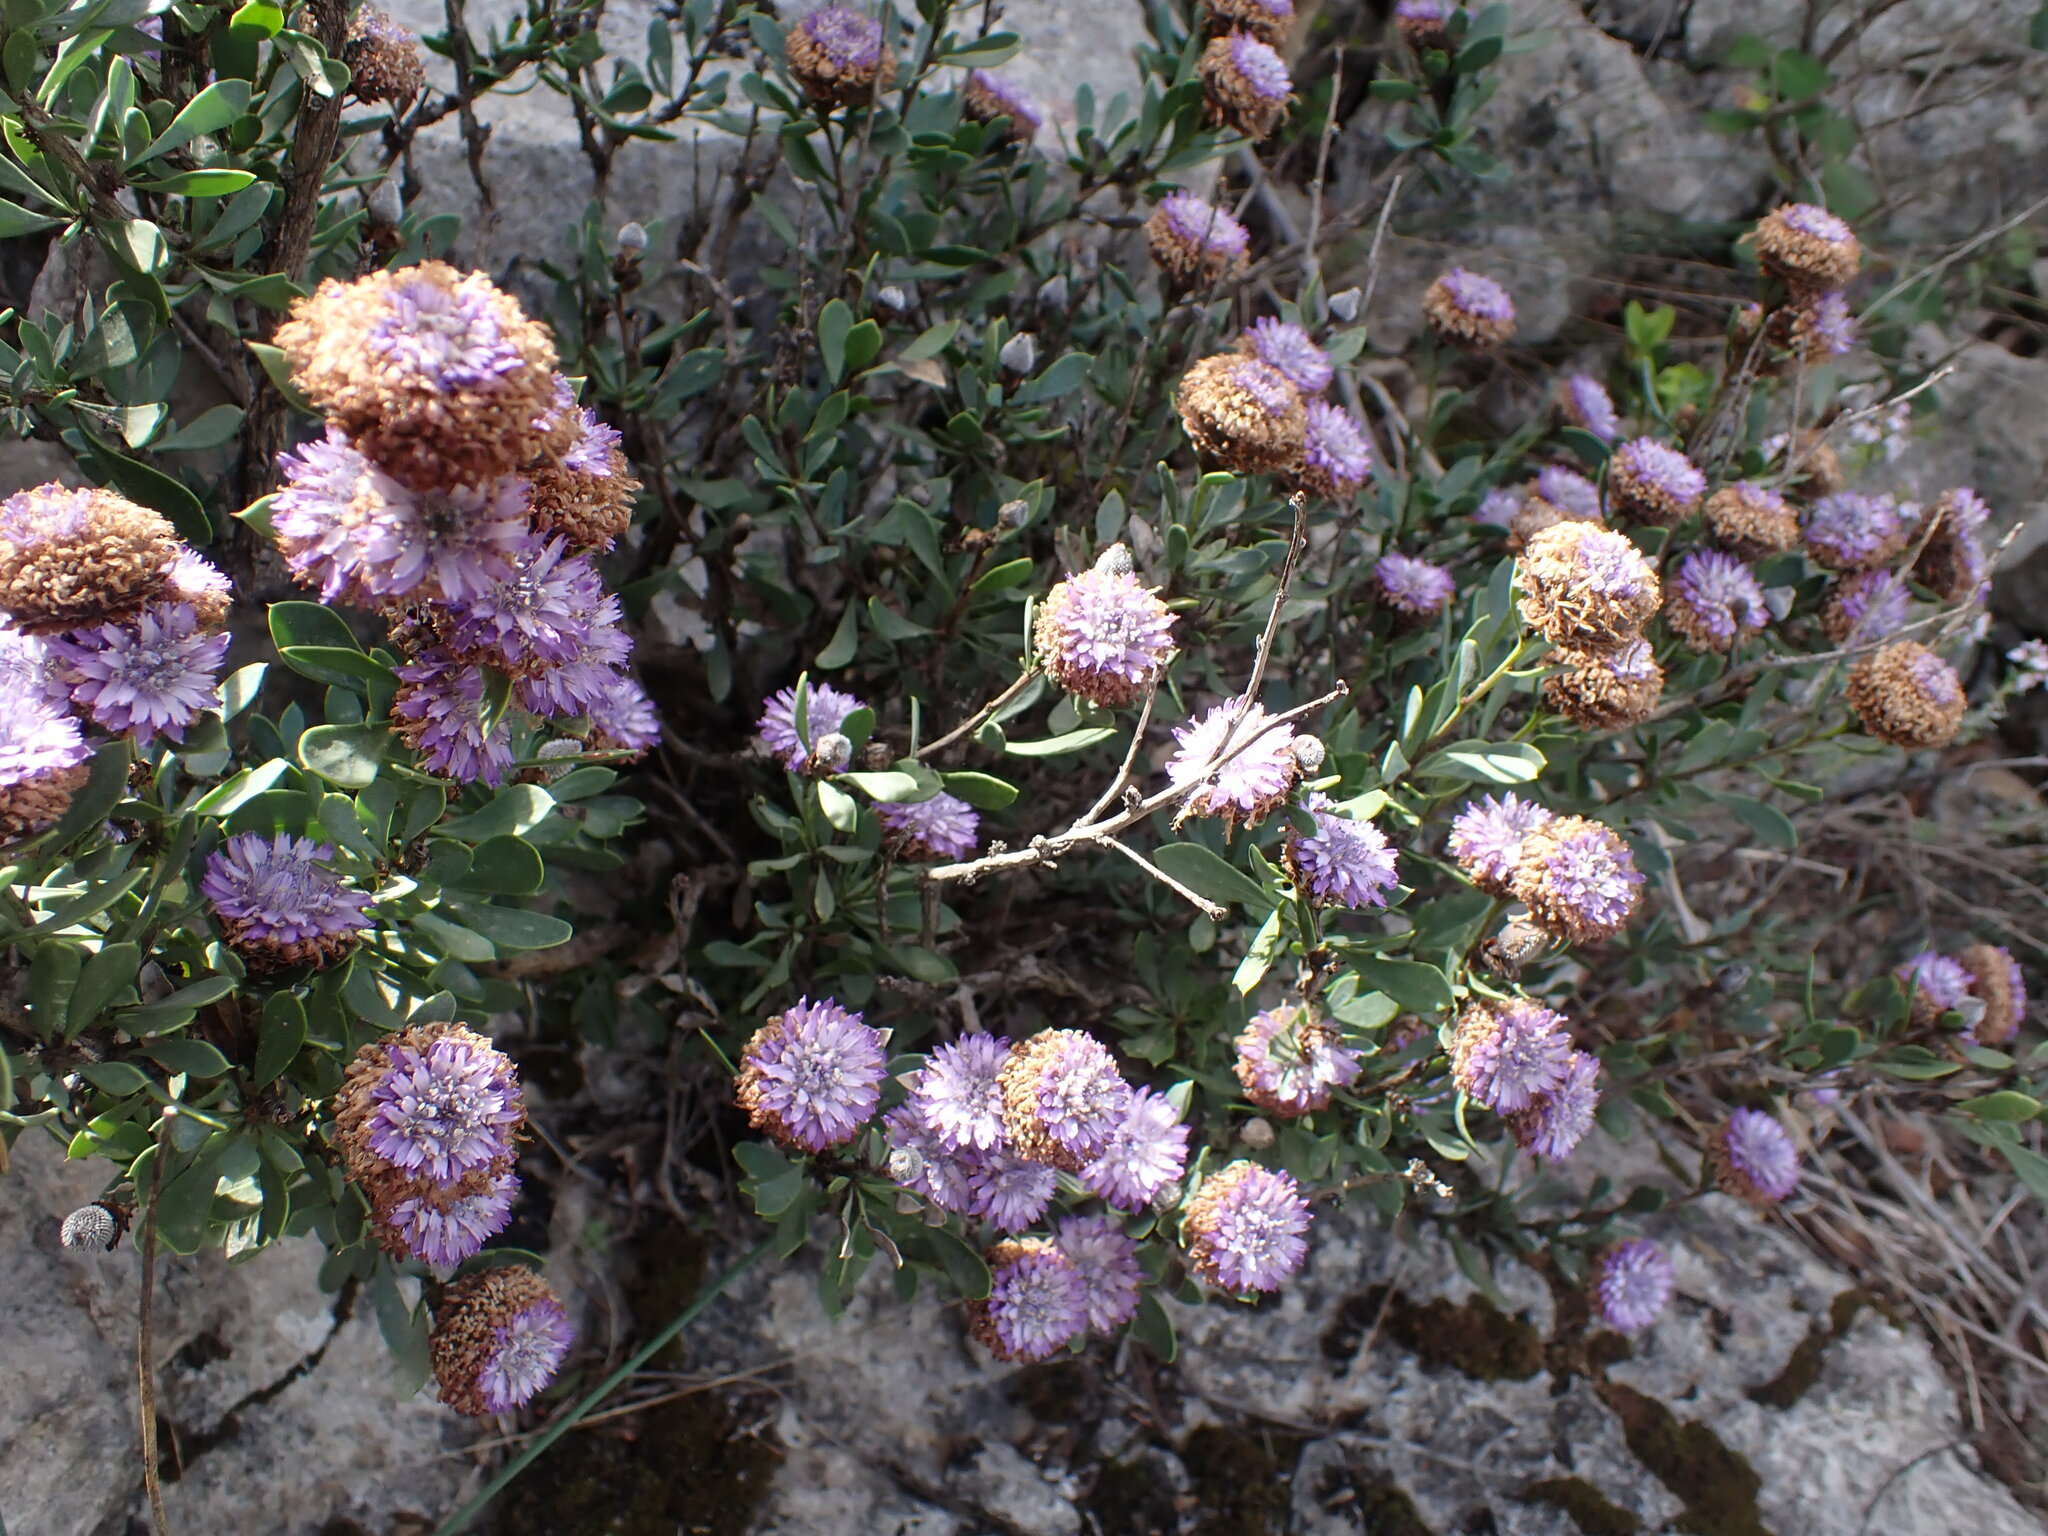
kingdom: Plantae
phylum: Tracheophyta
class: Magnoliopsida
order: Lamiales
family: Plantaginaceae
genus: Globularia
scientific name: Globularia alypum
